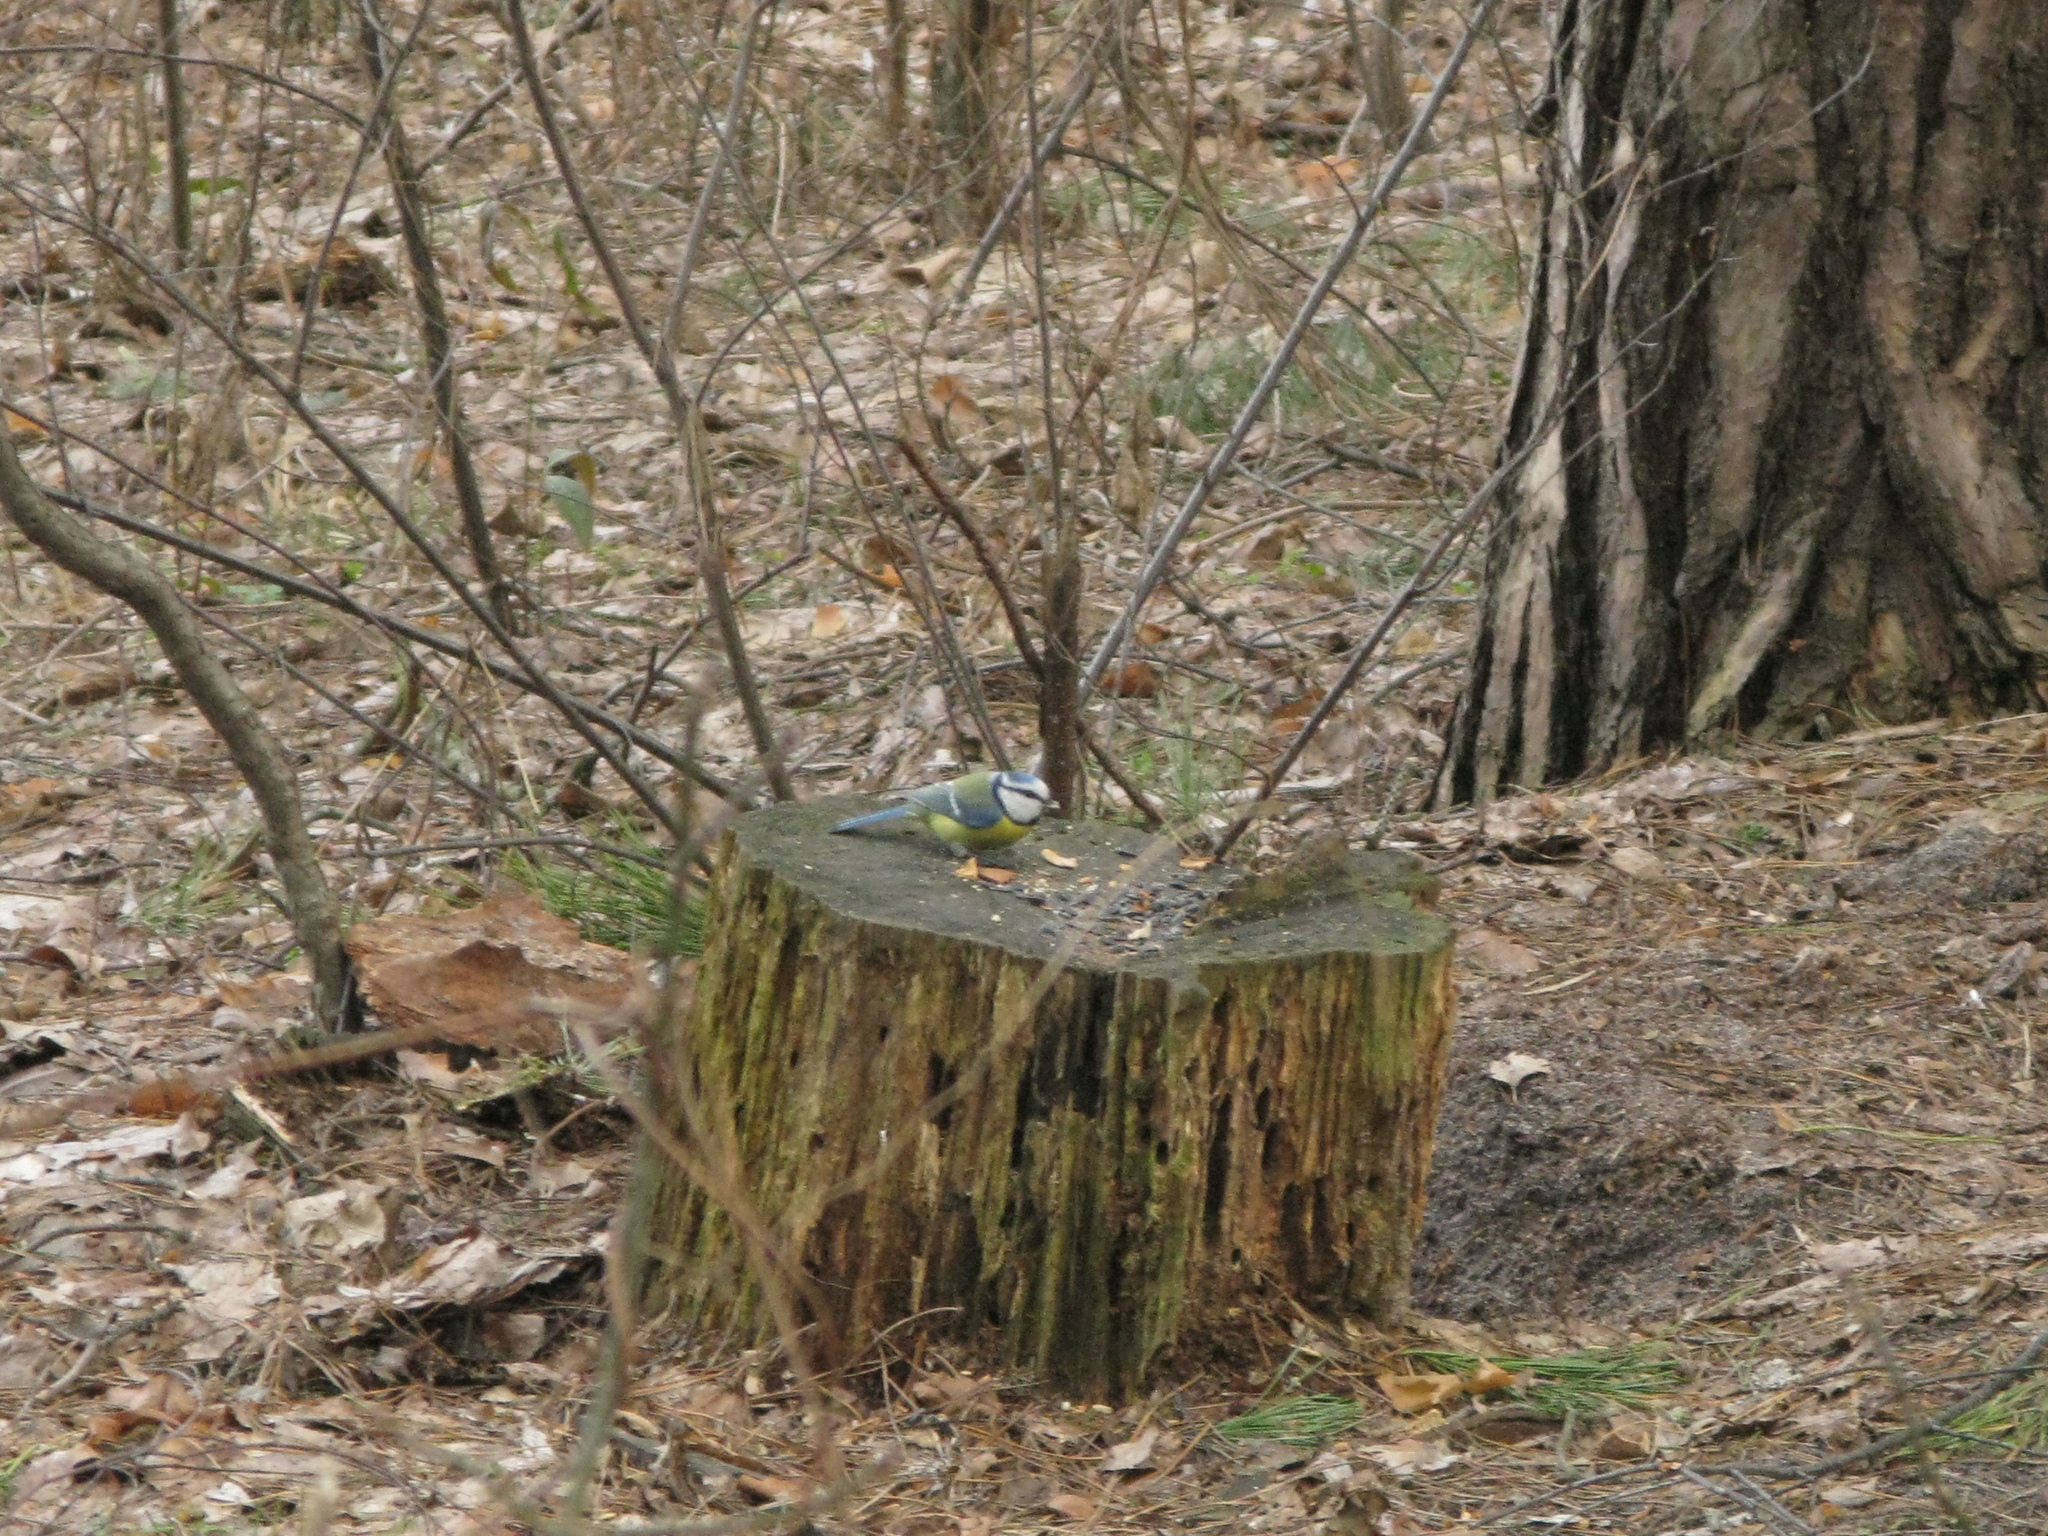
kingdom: Animalia
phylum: Chordata
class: Aves
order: Passeriformes
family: Paridae
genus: Cyanistes
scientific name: Cyanistes caeruleus
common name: Eurasian blue tit
